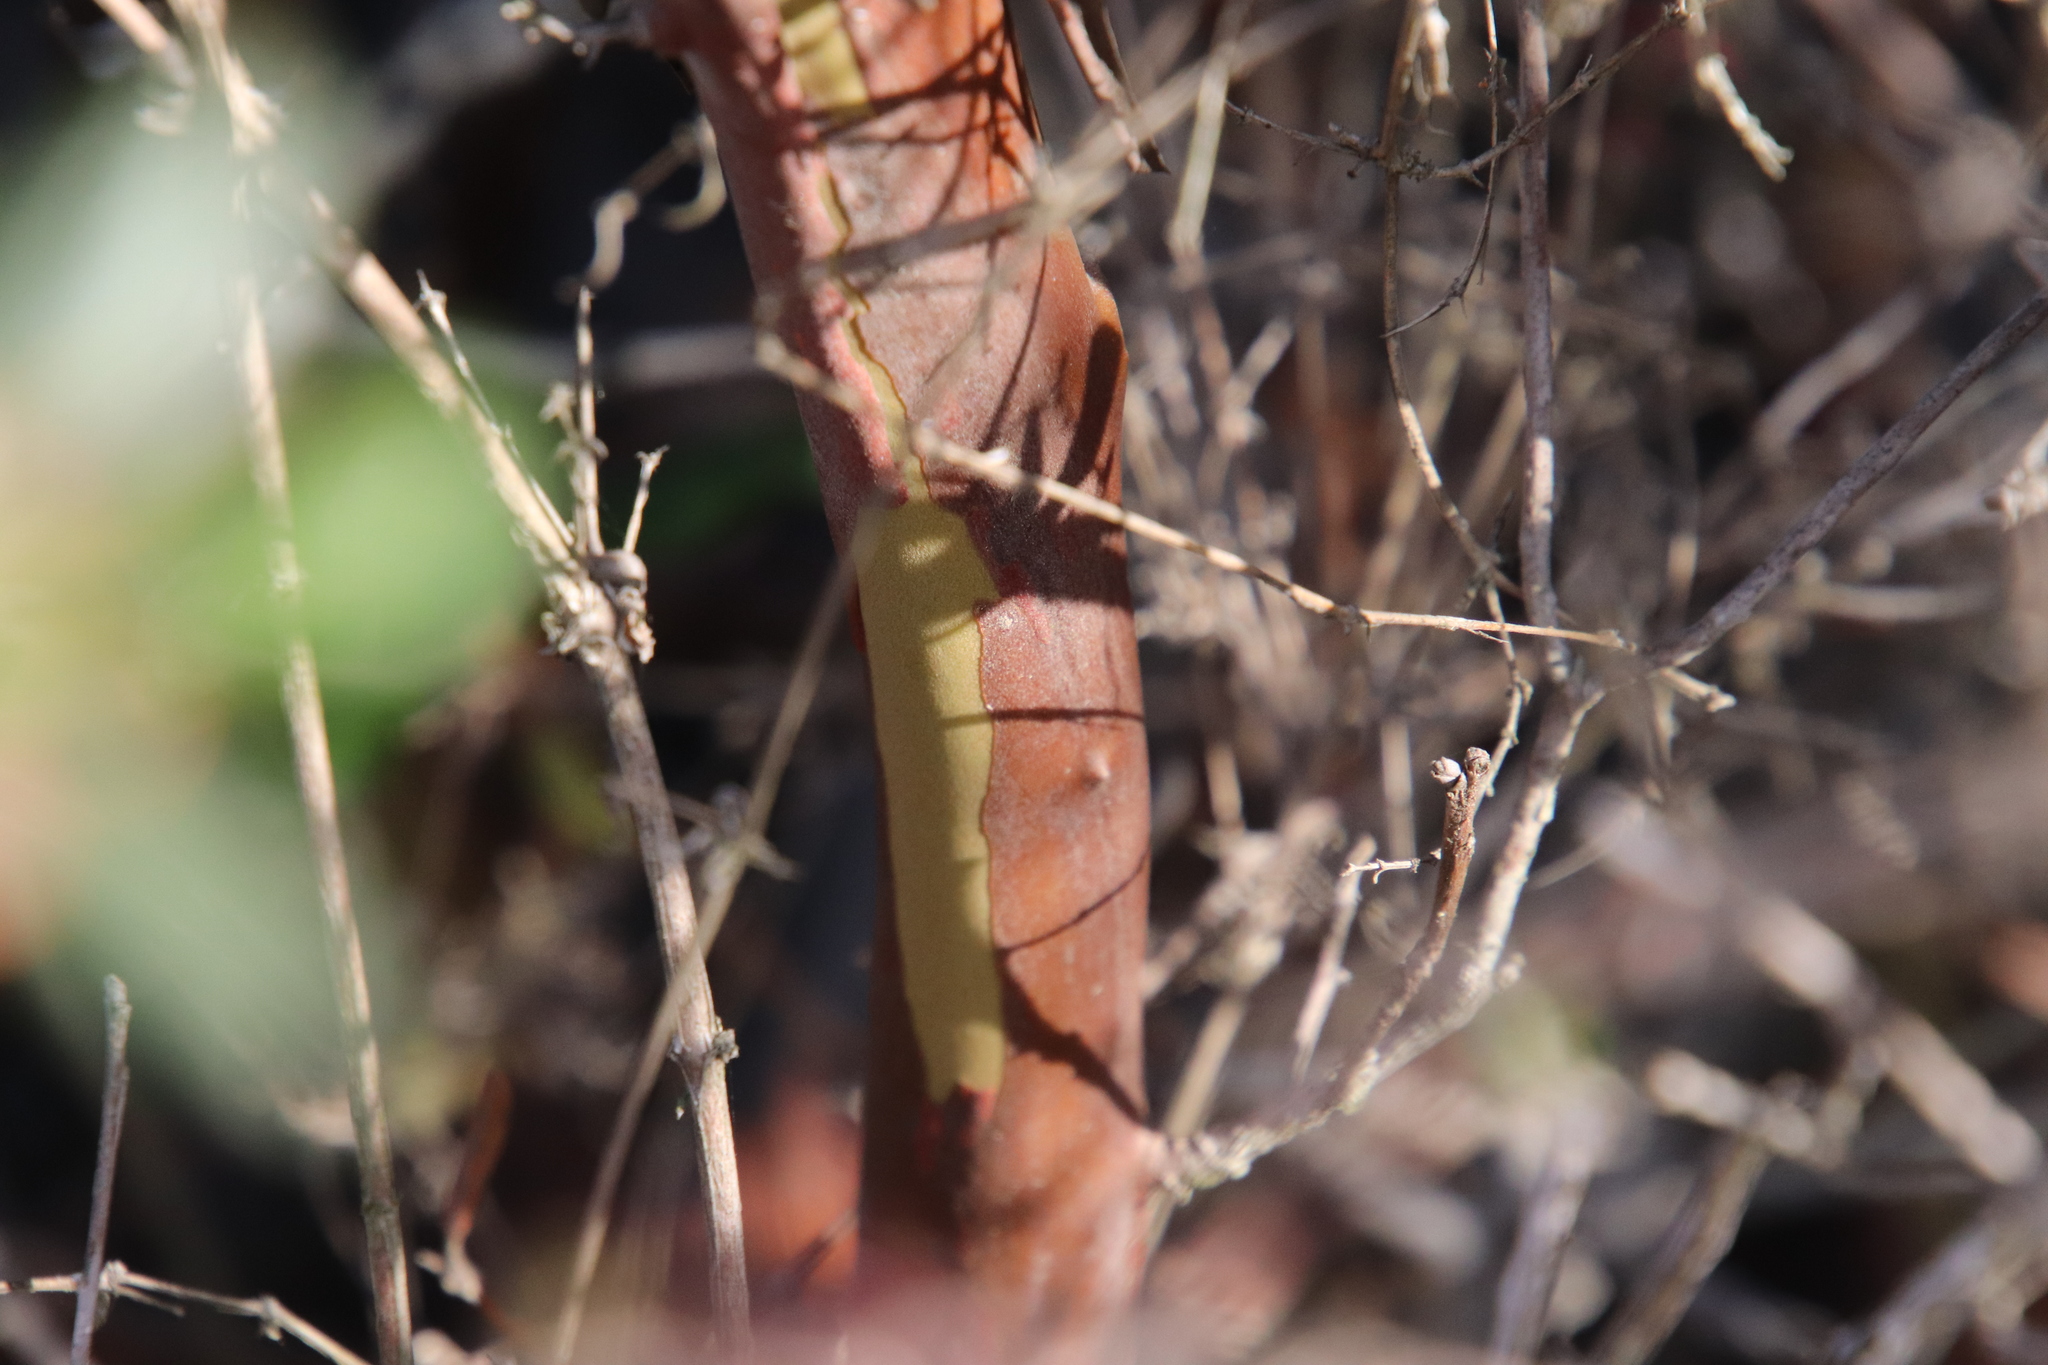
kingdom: Plantae
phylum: Tracheophyta
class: Magnoliopsida
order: Ericales
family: Ericaceae
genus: Arctostaphylos
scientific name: Arctostaphylos bicolor
